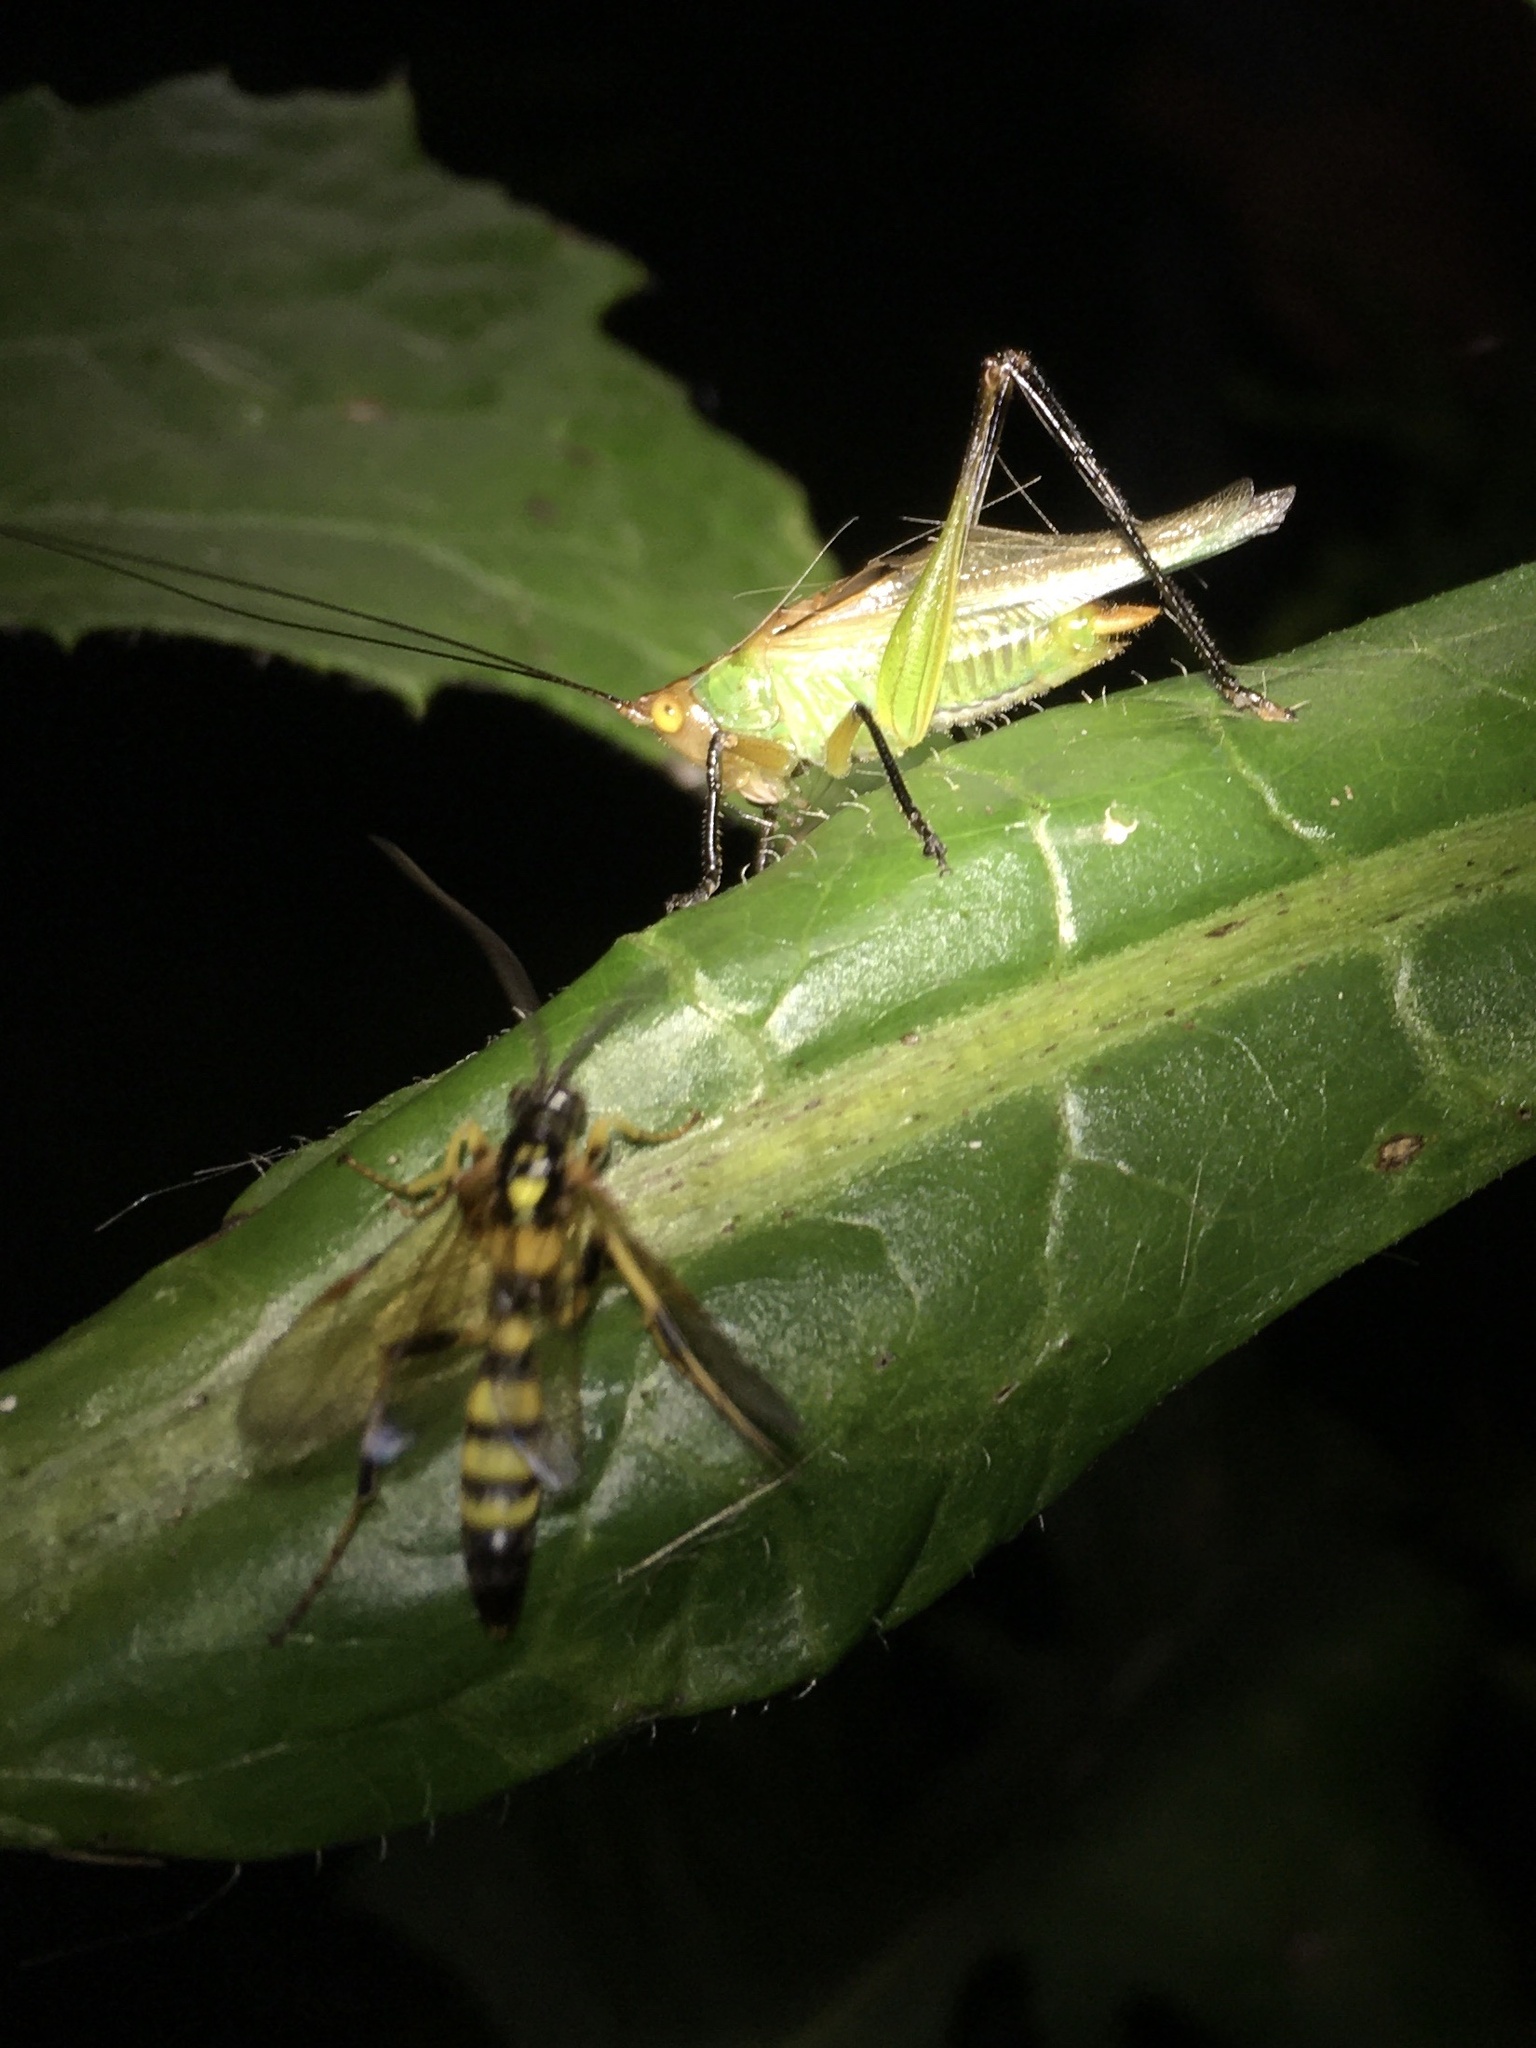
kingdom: Animalia
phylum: Arthropoda
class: Insecta
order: Orthoptera
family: Tettigoniidae
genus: Orchelimum
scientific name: Orchelimum nigripes
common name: Black-legged meadow katydid
